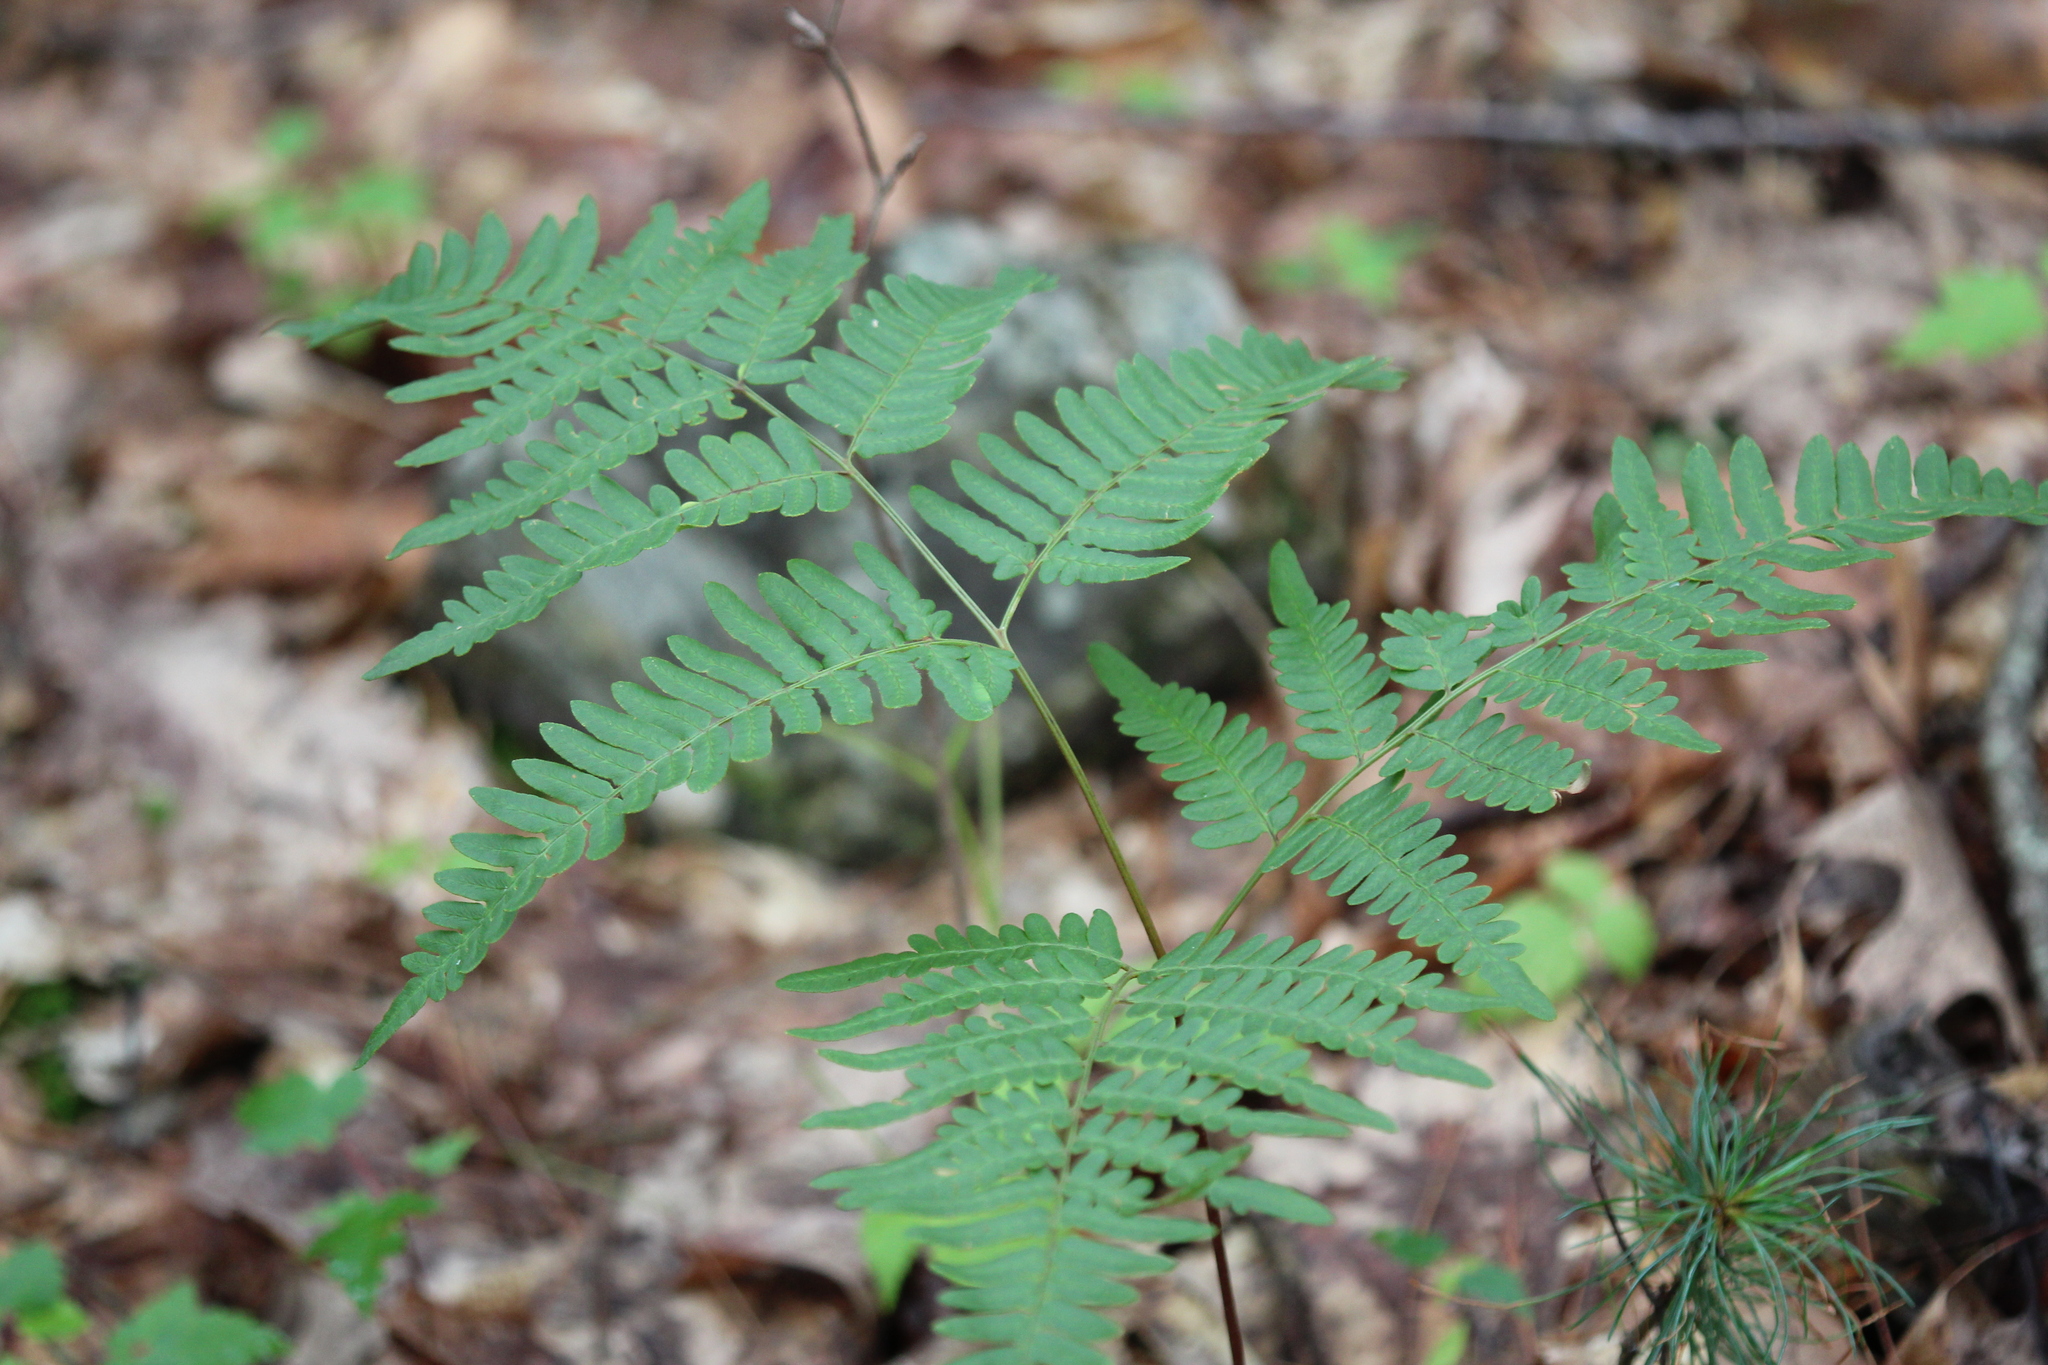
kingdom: Plantae
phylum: Tracheophyta
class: Polypodiopsida
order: Polypodiales
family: Dennstaedtiaceae
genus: Pteridium
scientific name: Pteridium aquilinum
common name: Bracken
